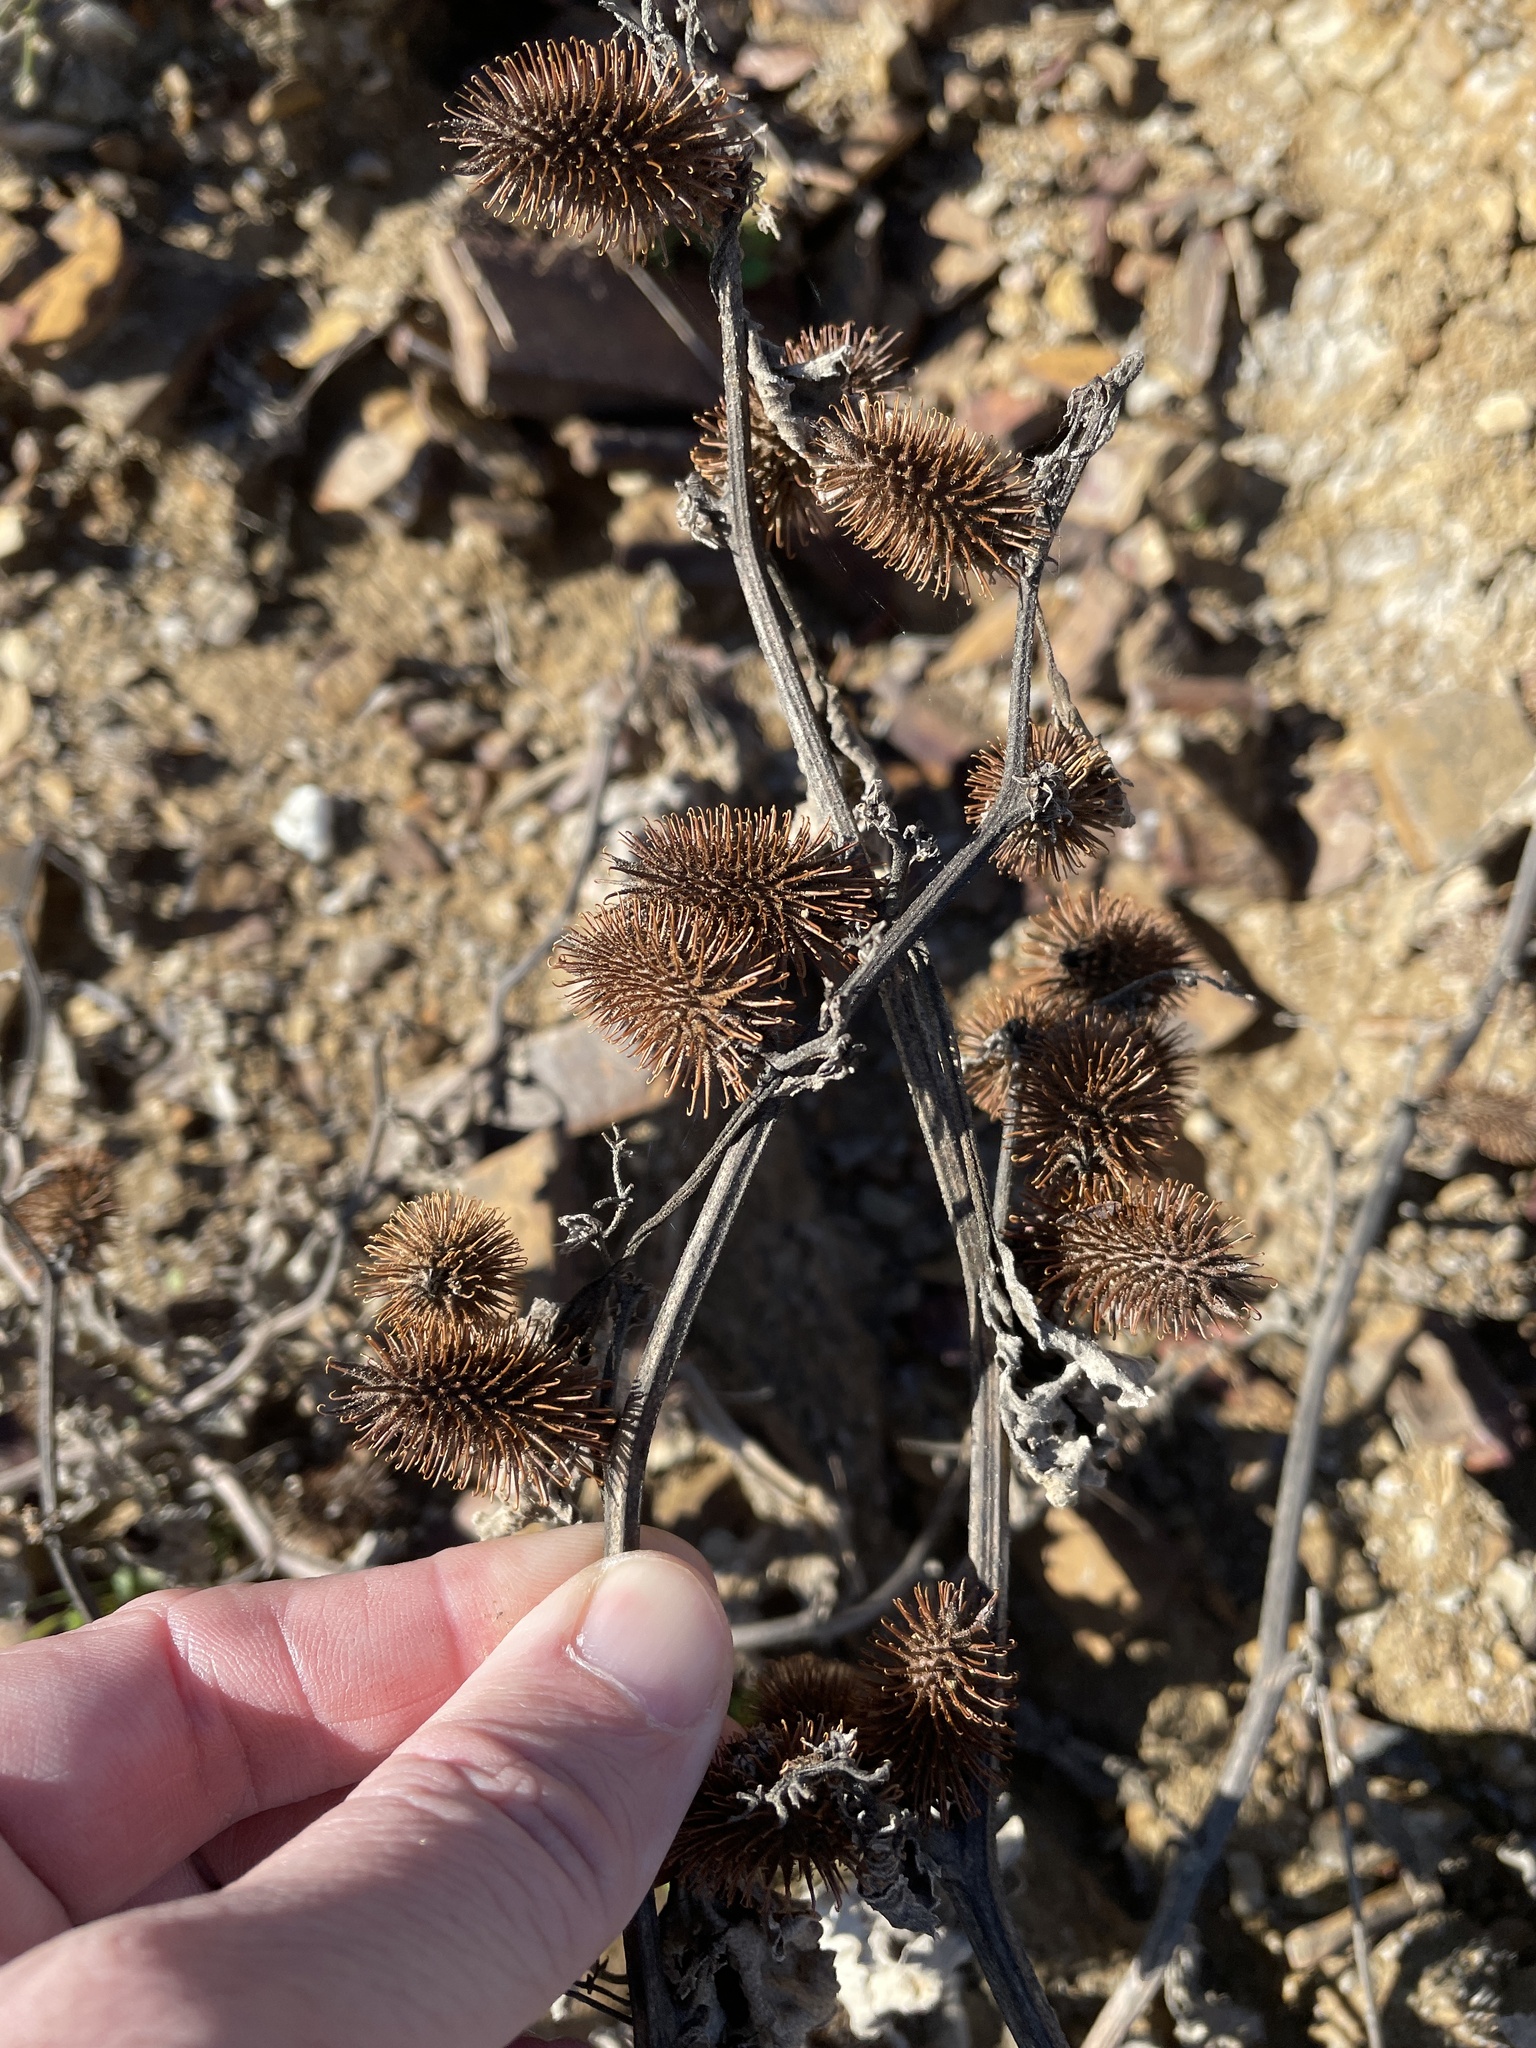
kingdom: Plantae
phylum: Tracheophyta
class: Magnoliopsida
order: Asterales
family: Asteraceae
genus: Xanthium
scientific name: Xanthium strumarium
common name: Rough cocklebur
